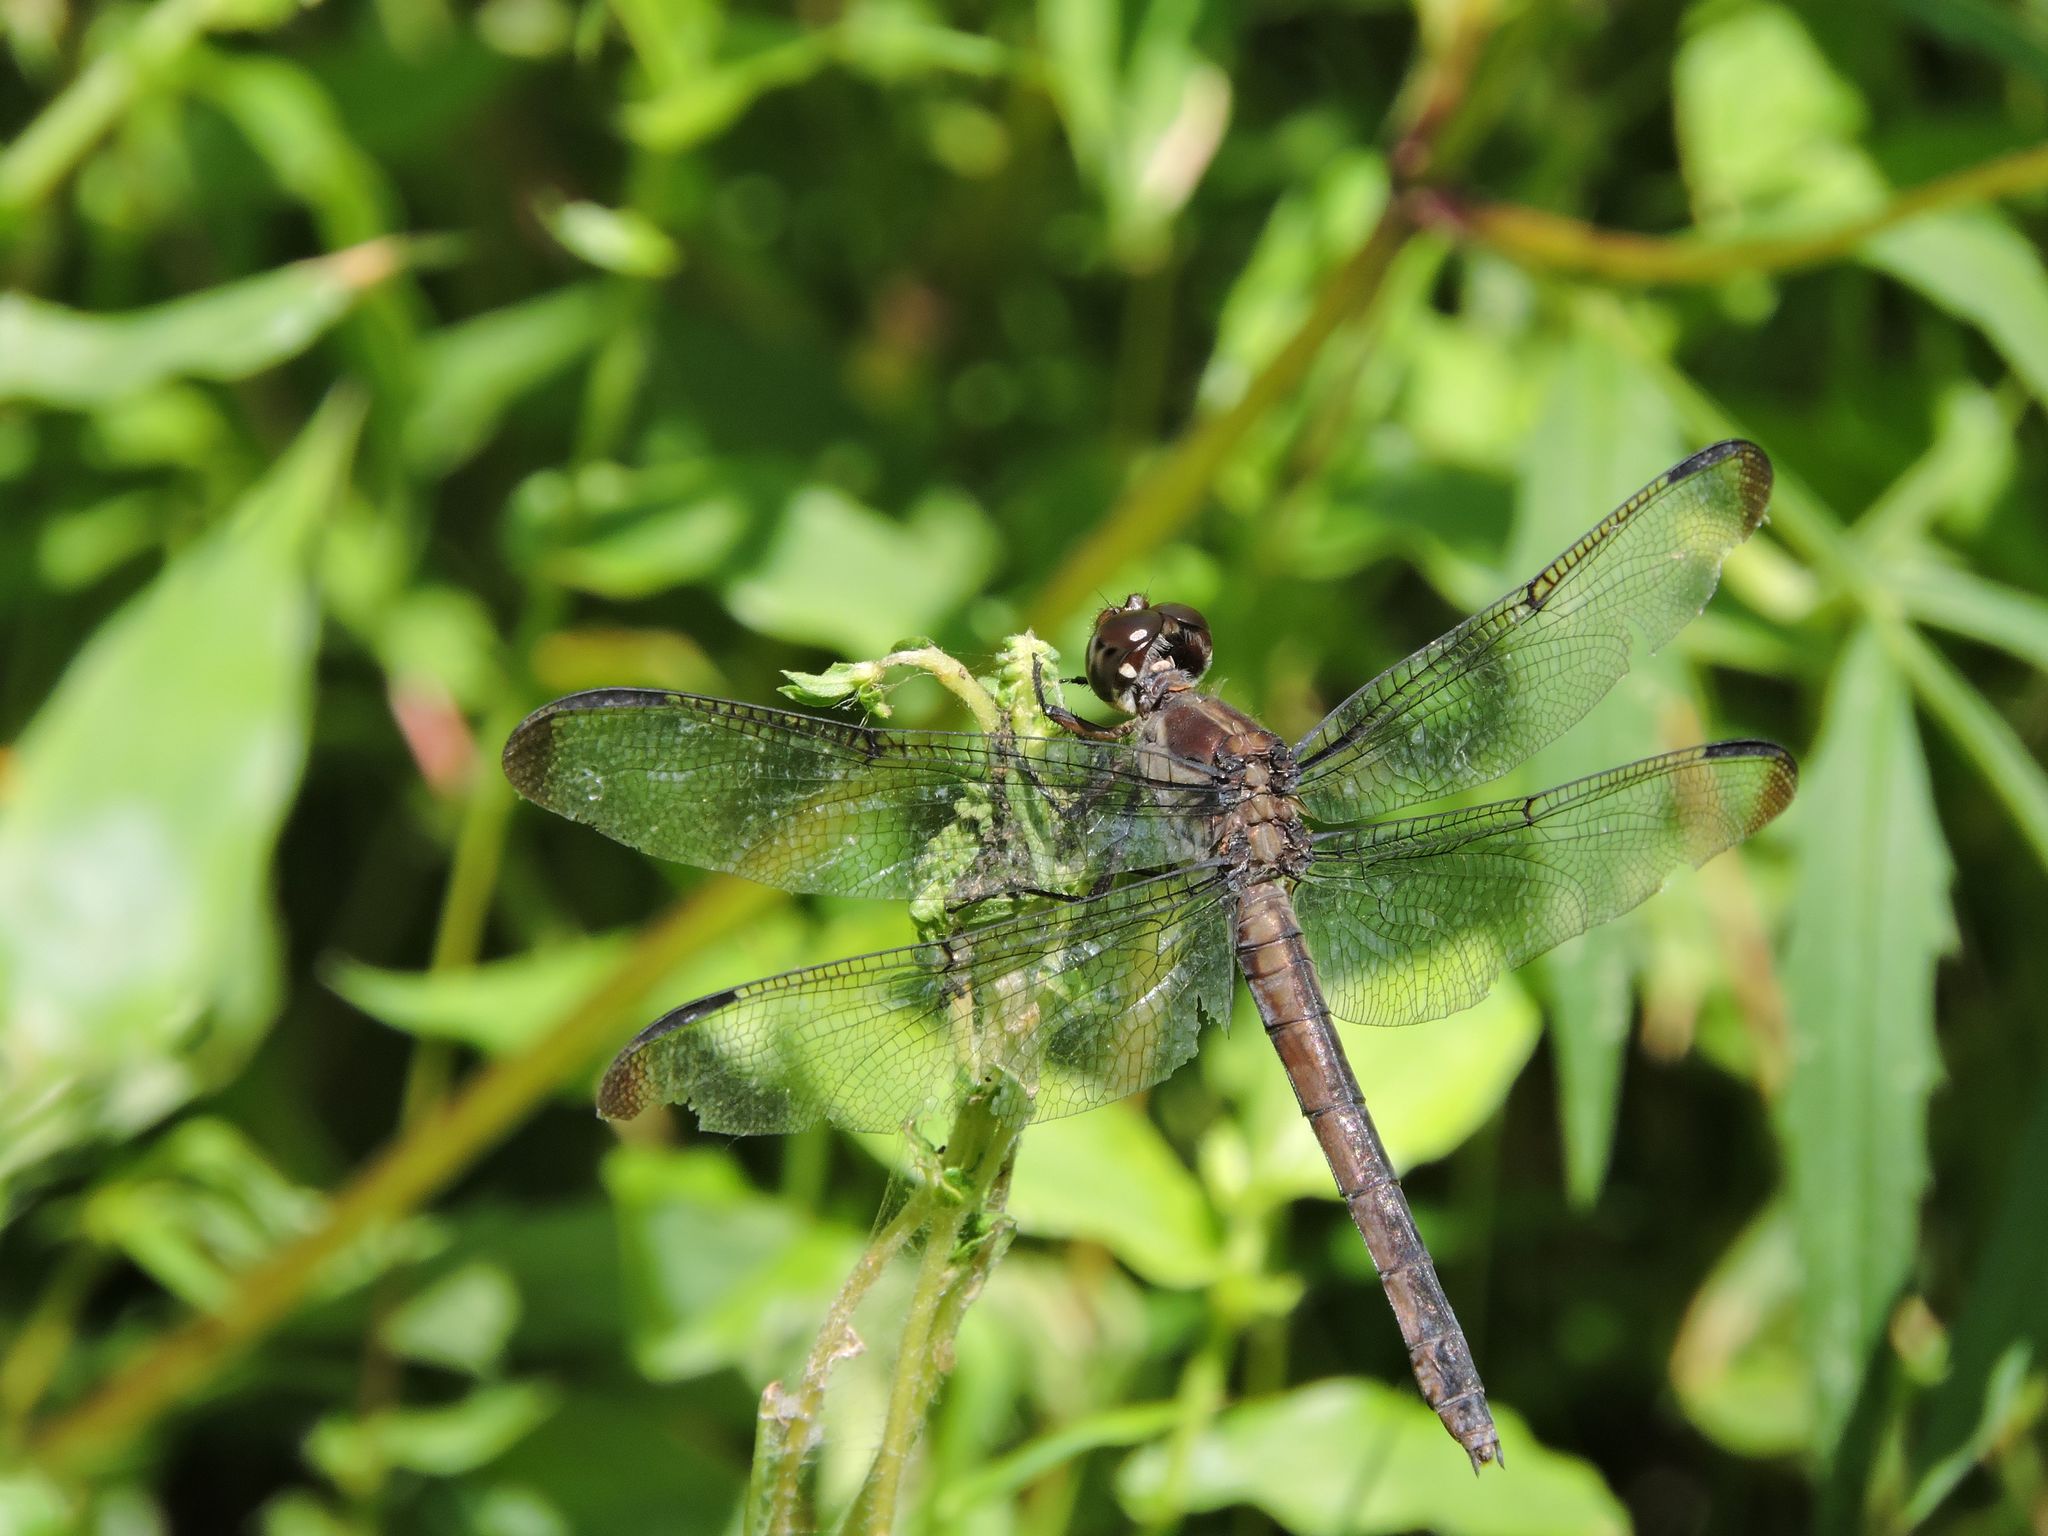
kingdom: Animalia
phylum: Arthropoda
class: Insecta
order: Odonata
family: Libellulidae
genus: Libellula
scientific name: Libellula incesta
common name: Slaty skimmer
